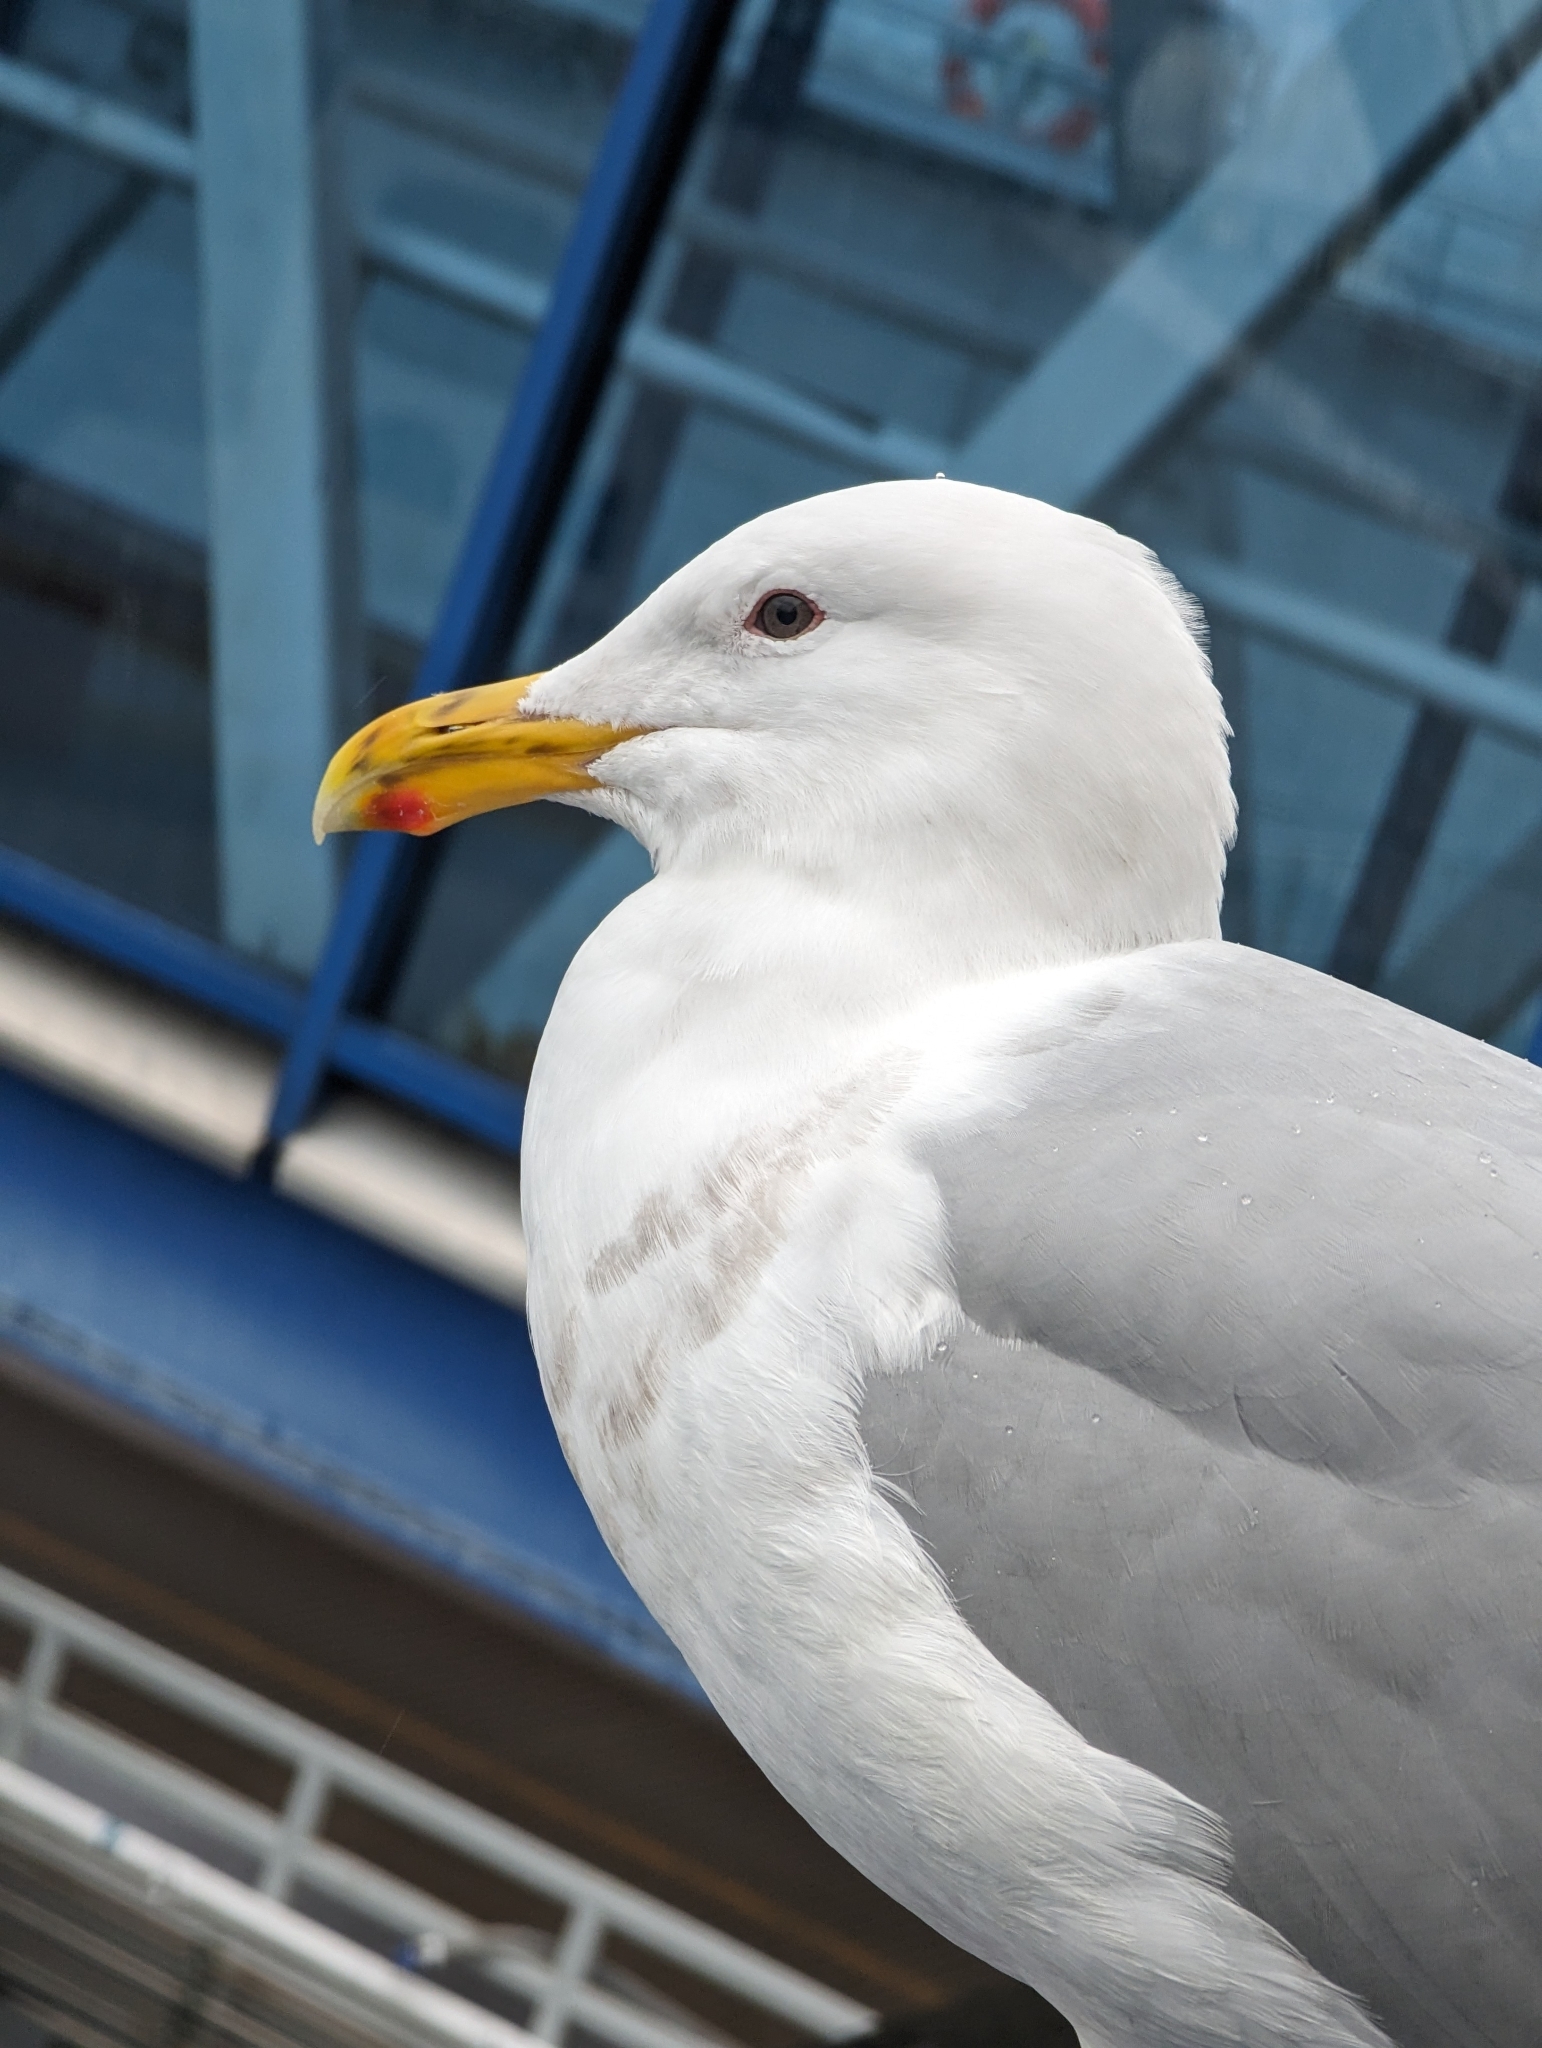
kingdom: Animalia
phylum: Chordata
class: Aves
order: Charadriiformes
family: Laridae
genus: Larus
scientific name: Larus
